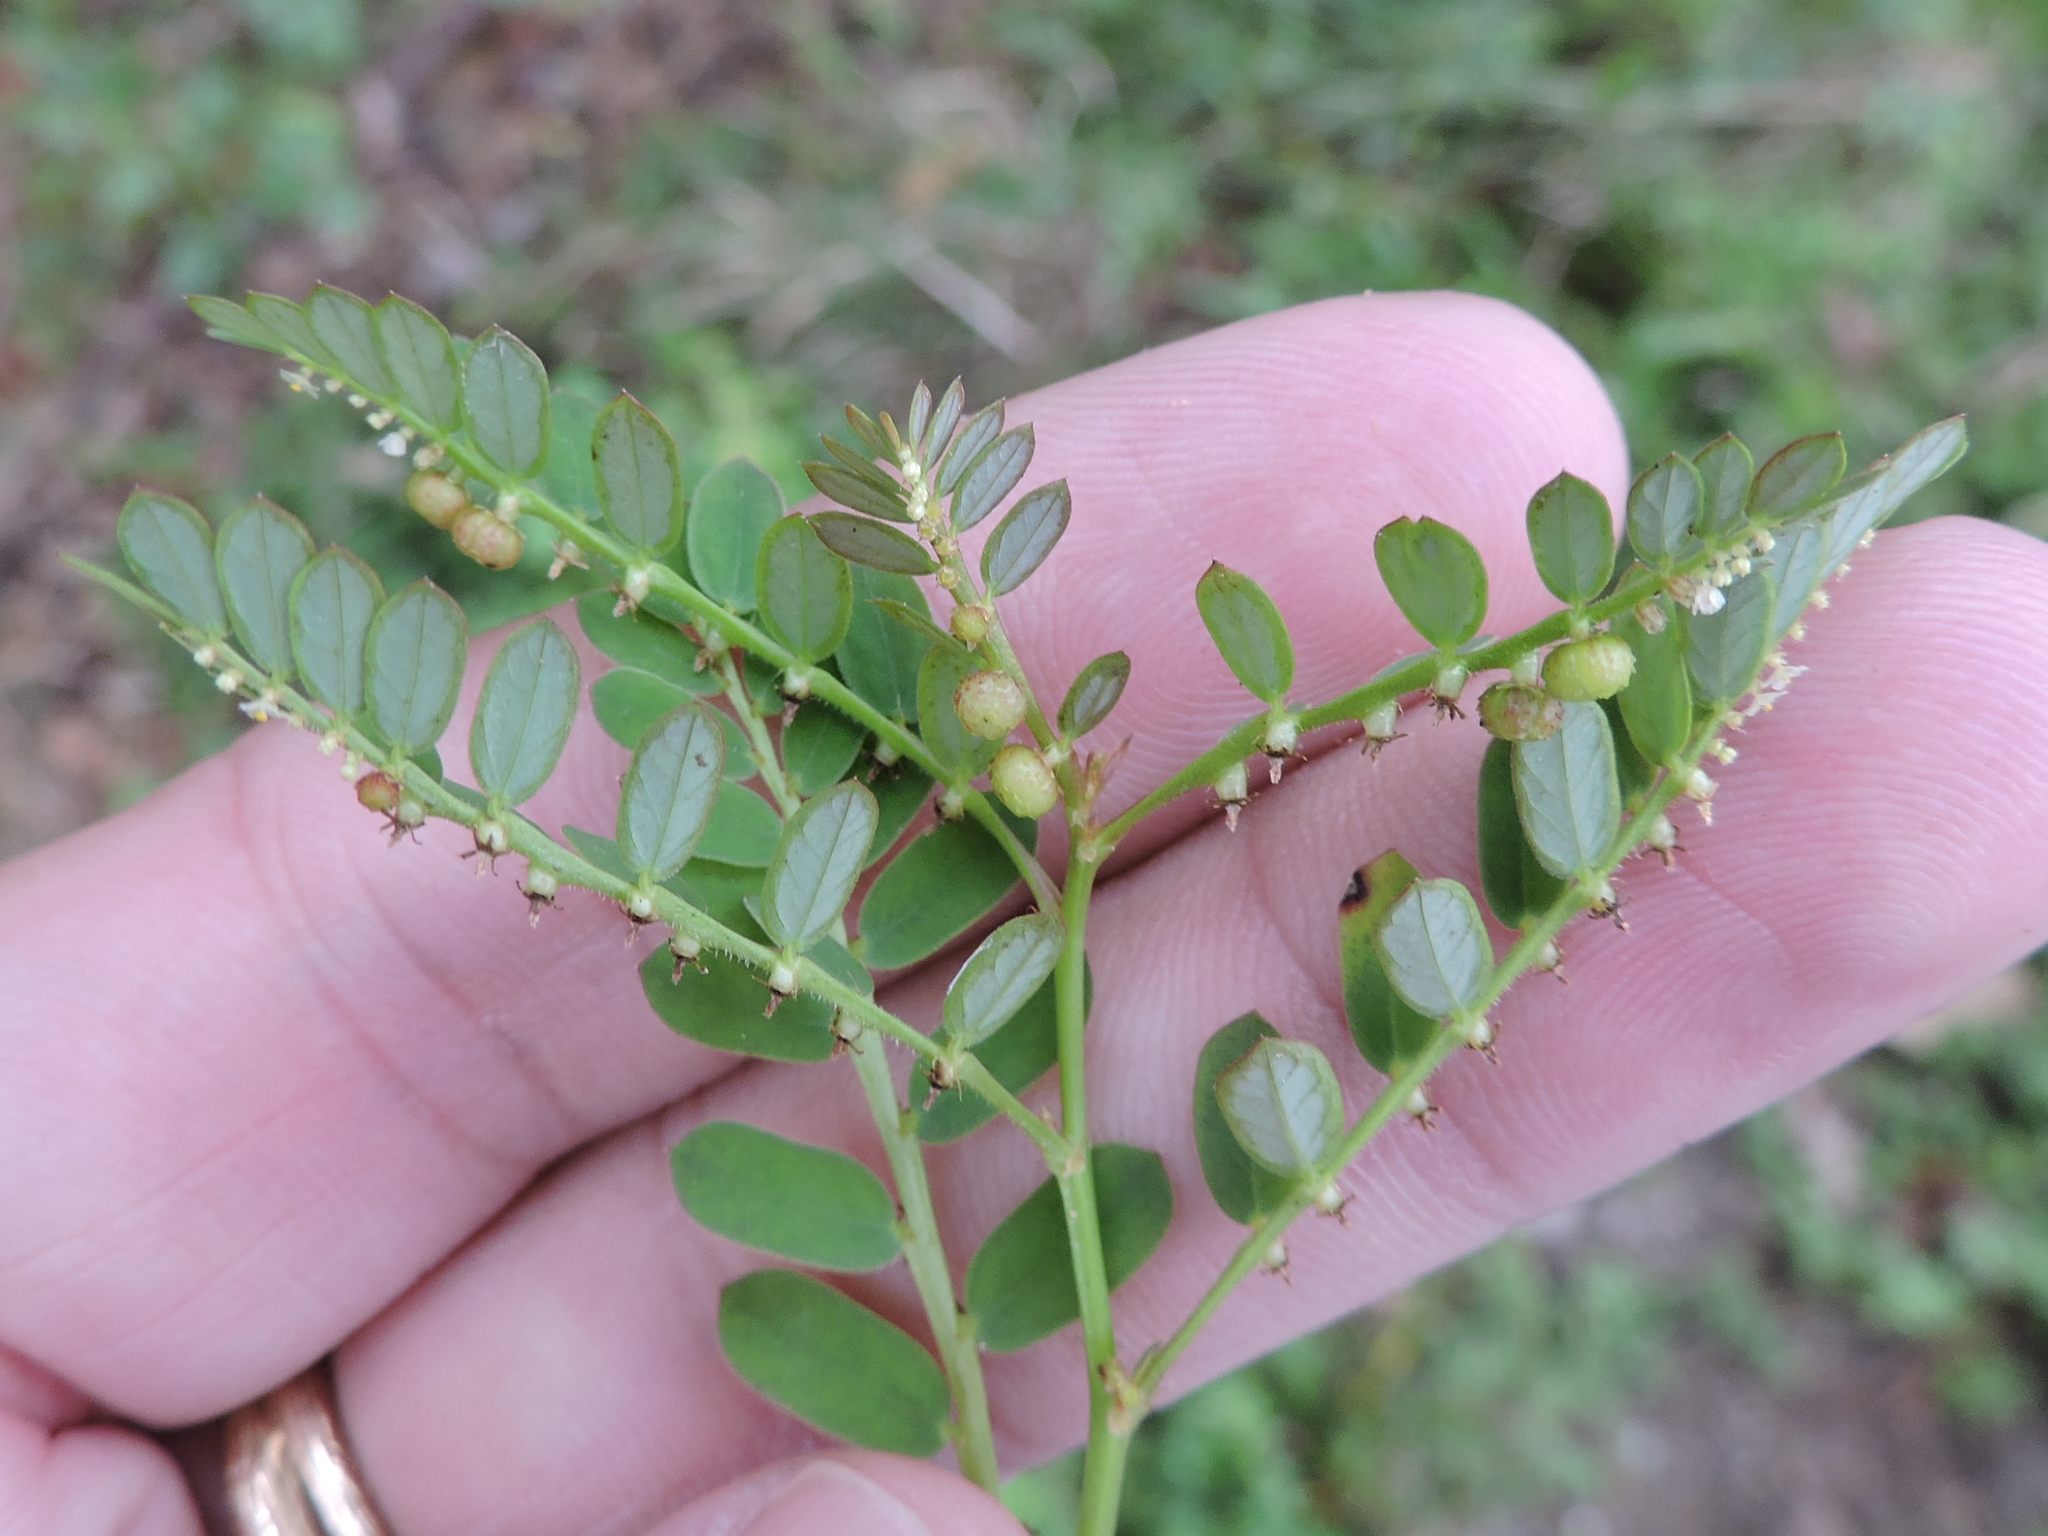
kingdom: Plantae
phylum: Tracheophyta
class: Magnoliopsida
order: Malpighiales
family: Phyllanthaceae
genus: Phyllanthus
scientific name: Phyllanthus urinaria
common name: Chamber bitter
